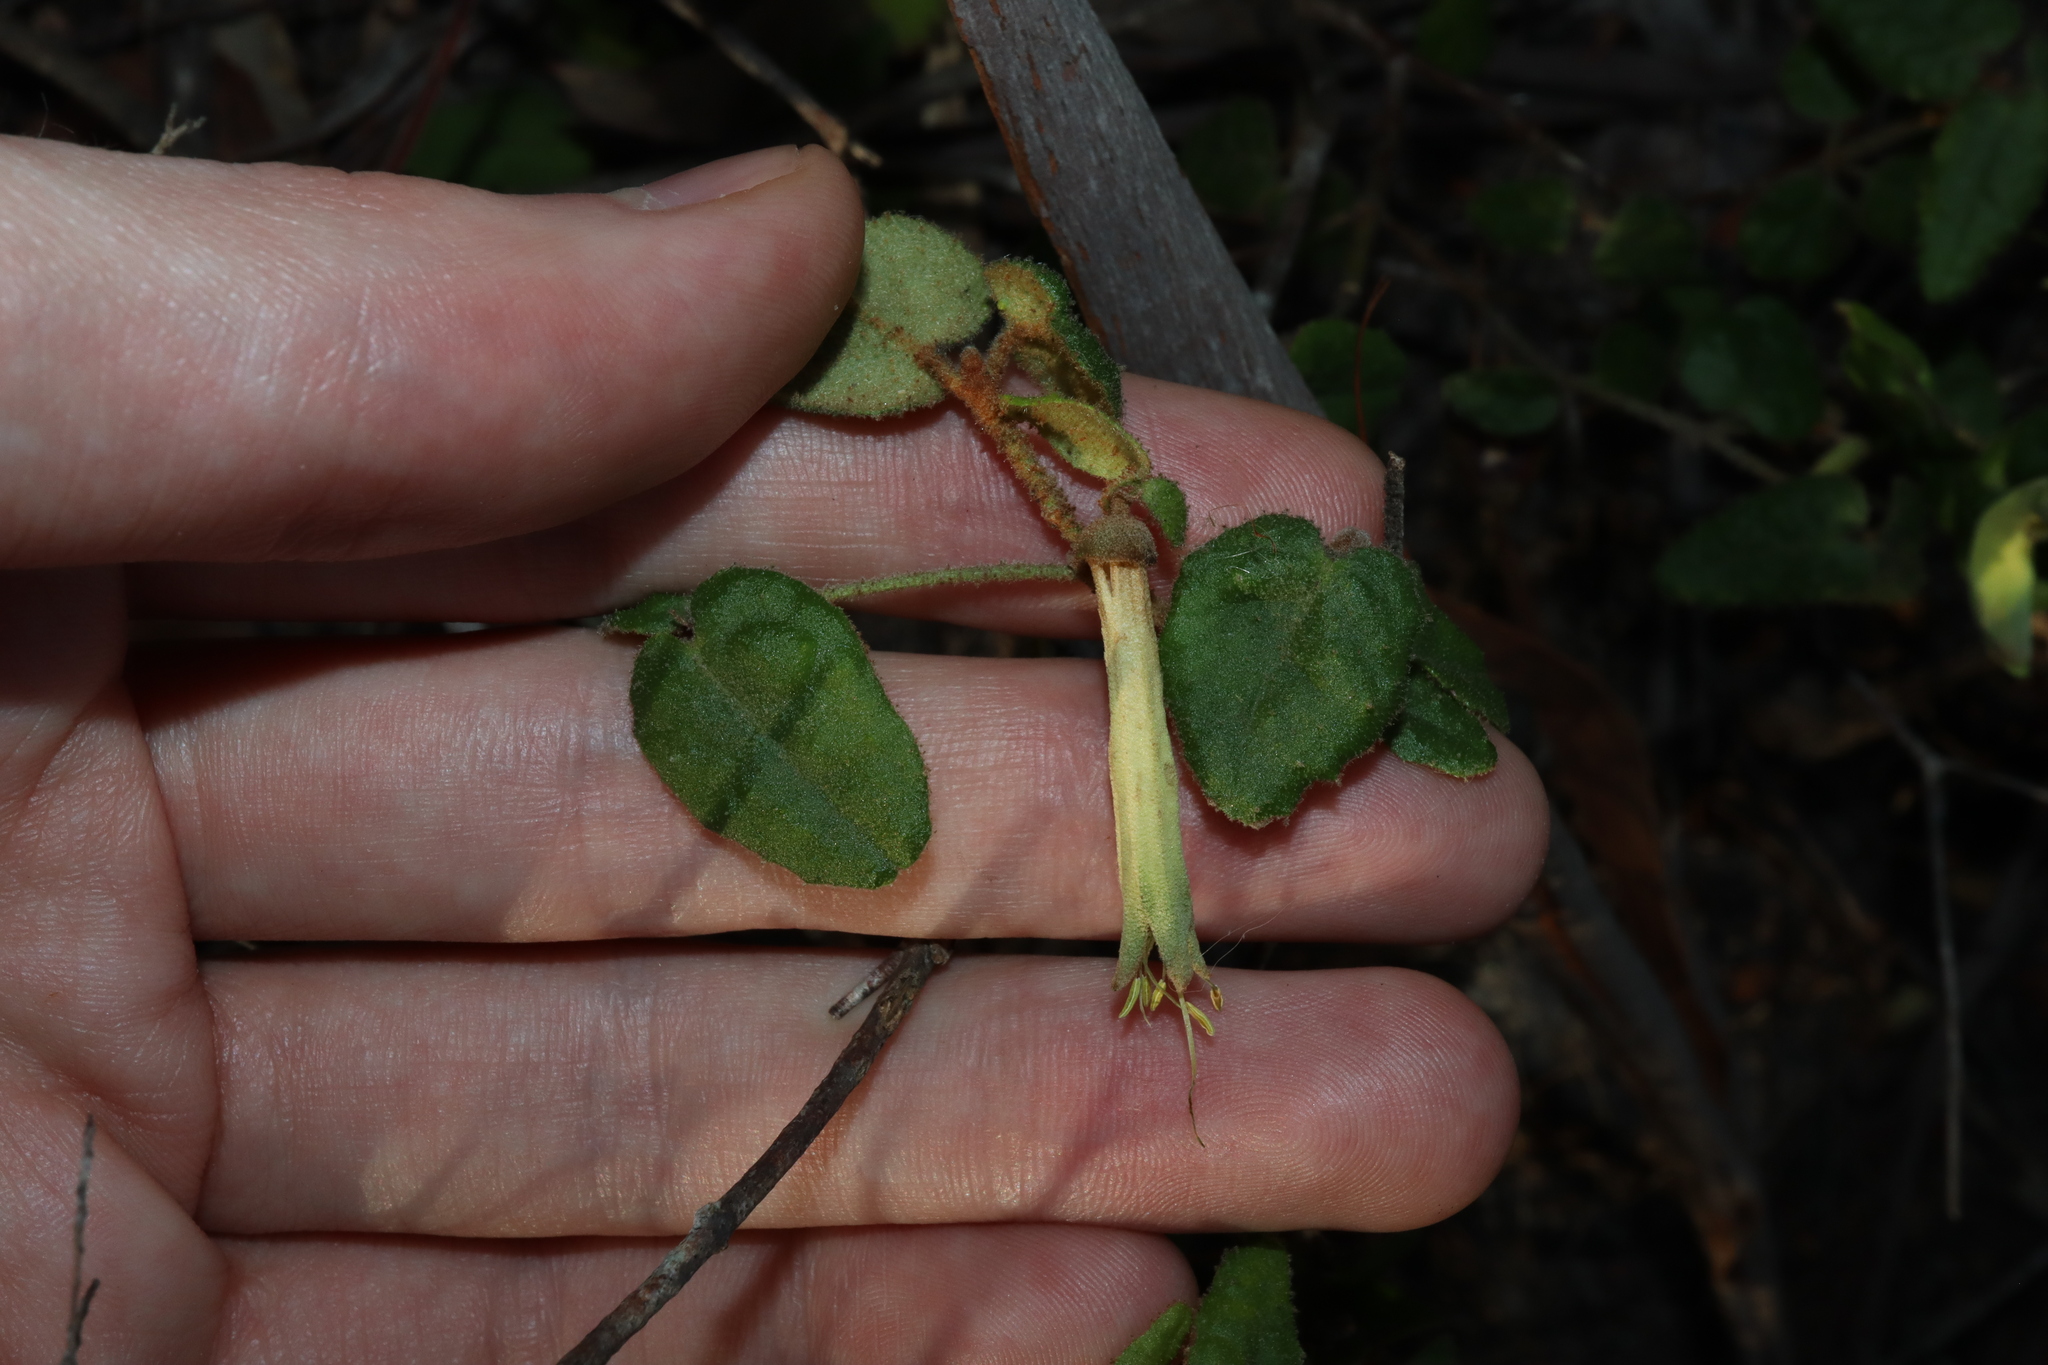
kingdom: Plantae
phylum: Tracheophyta
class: Magnoliopsida
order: Sapindales
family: Rutaceae
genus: Correa
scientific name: Correa reflexa
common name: Common correa
